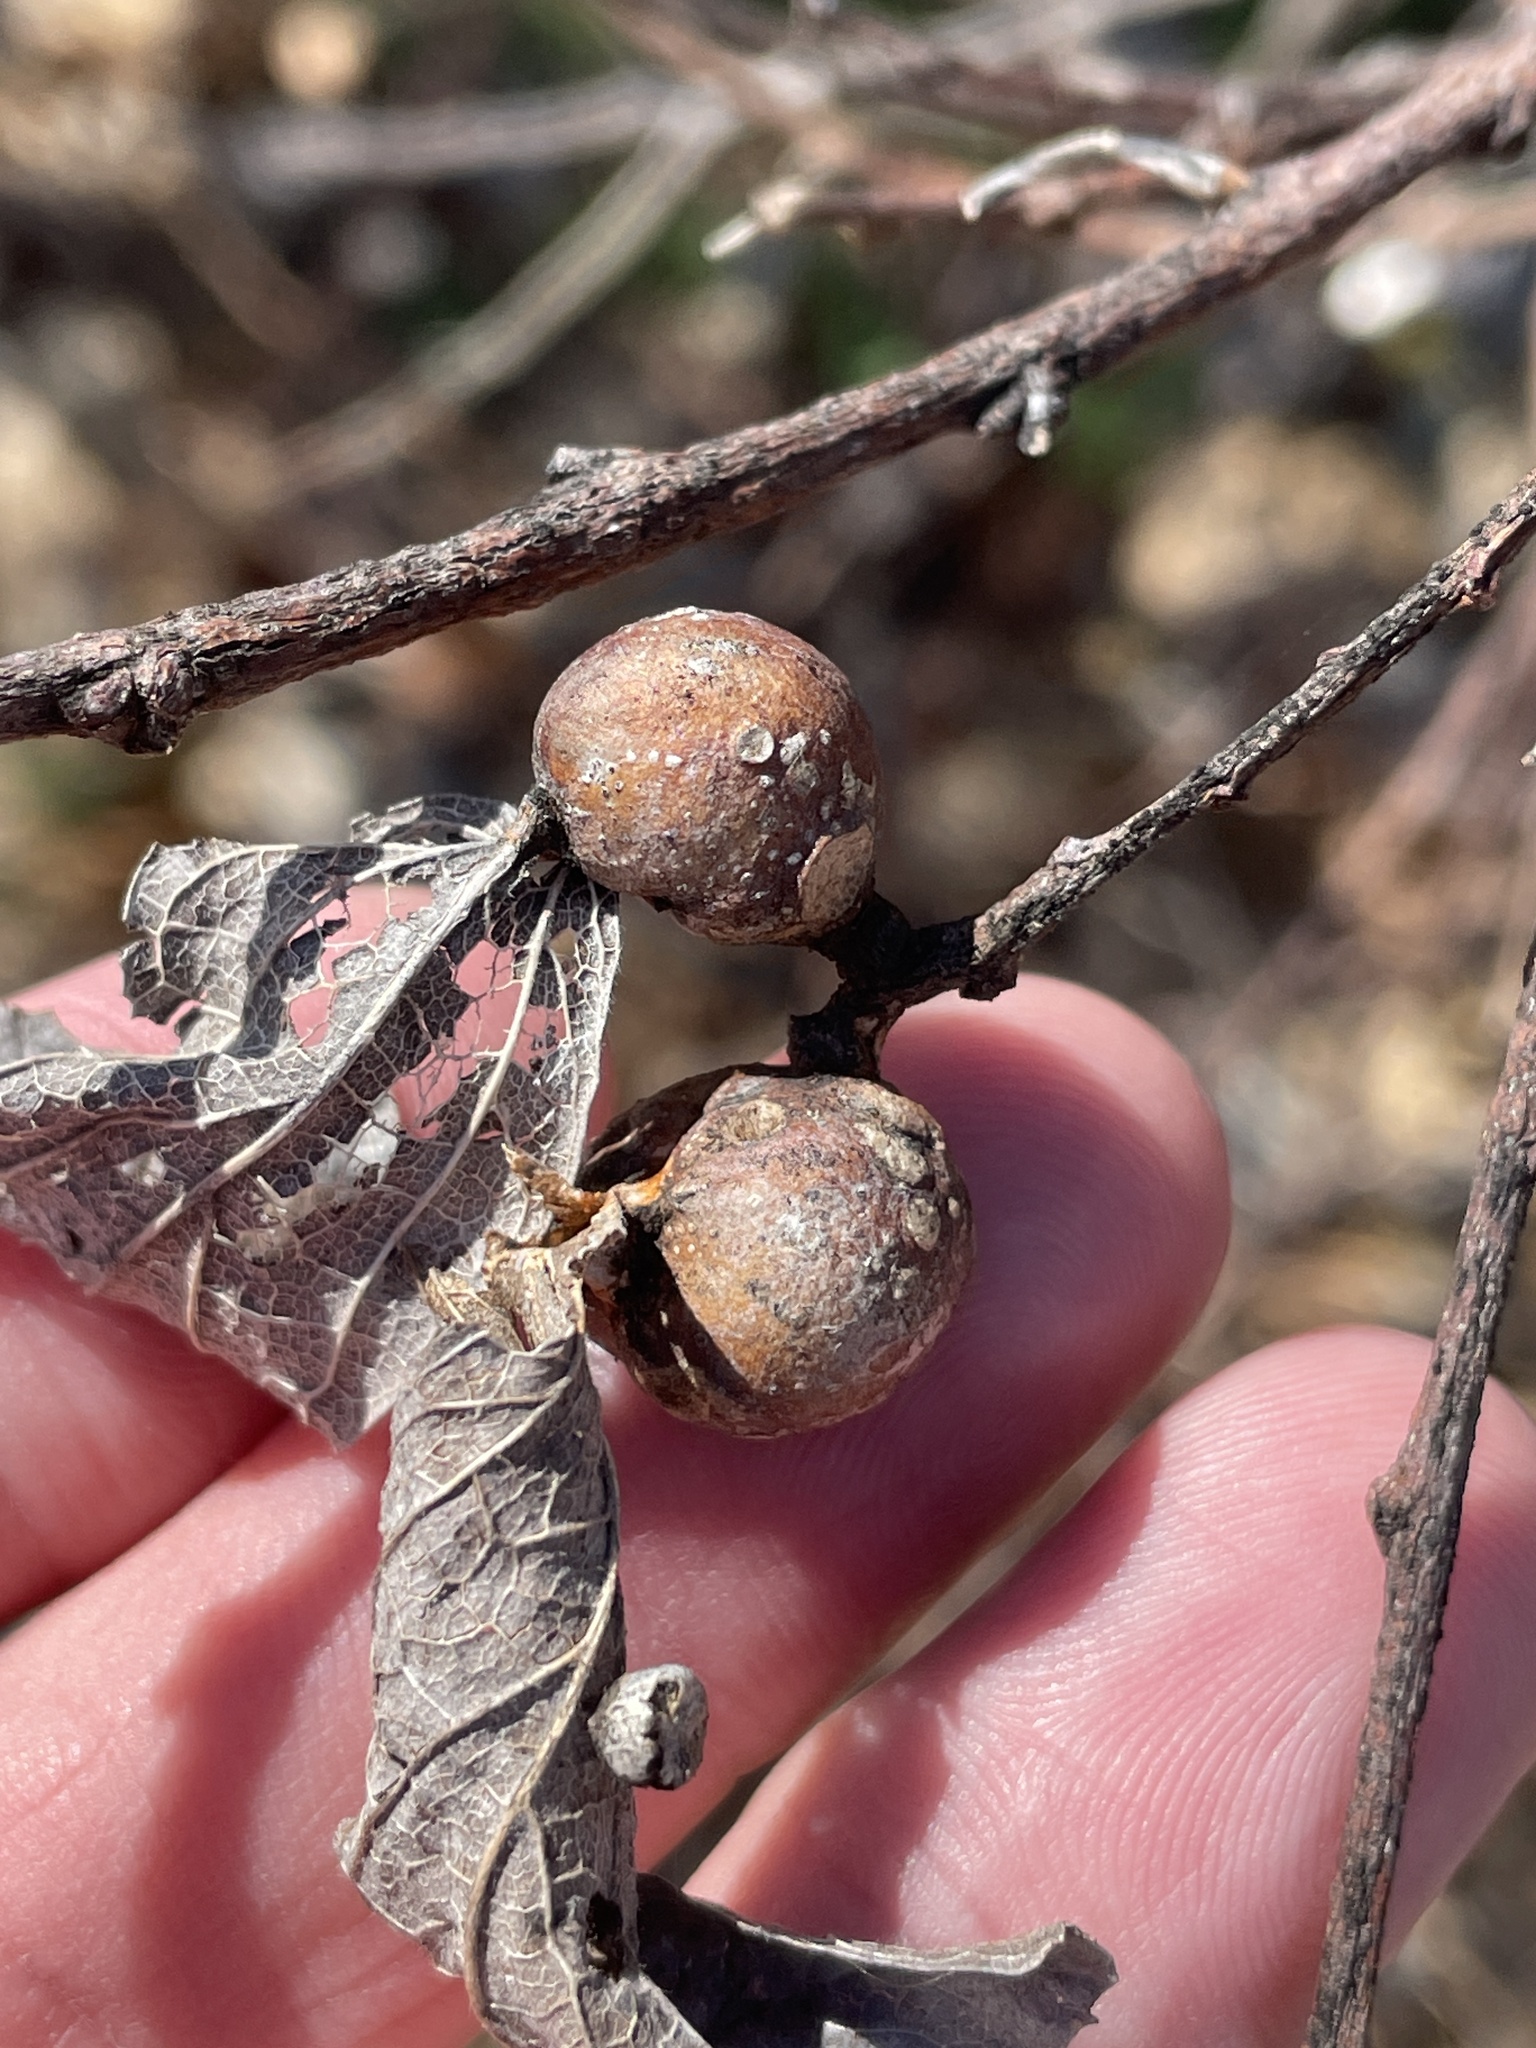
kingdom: Animalia
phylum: Arthropoda
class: Insecta
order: Hemiptera
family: Aphalaridae
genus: Pachypsylla
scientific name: Pachypsylla venusta
